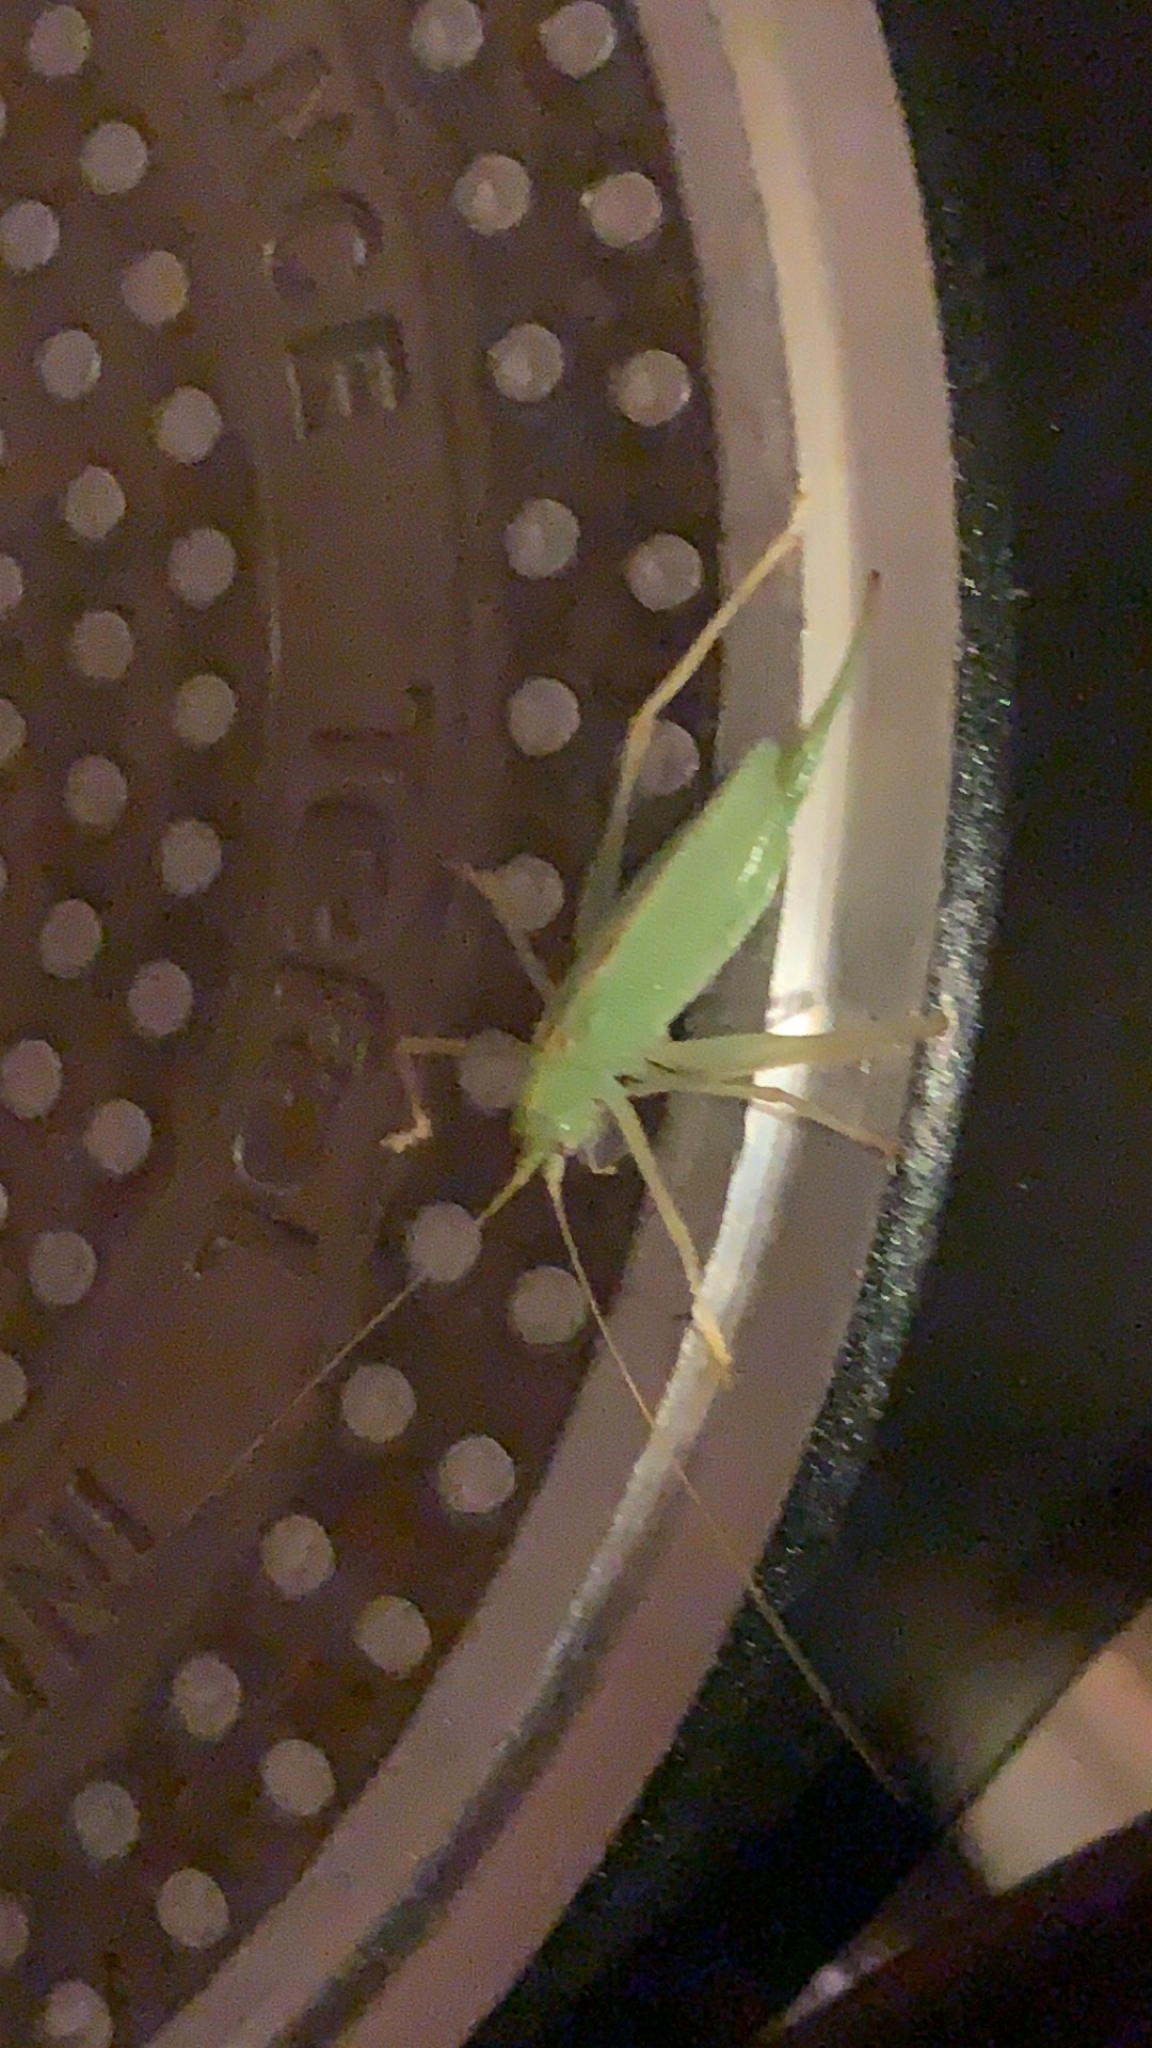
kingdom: Animalia
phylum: Arthropoda
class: Insecta
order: Orthoptera
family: Tettigoniidae
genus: Meconema
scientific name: Meconema thalassinum
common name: Oak bush-cricket
